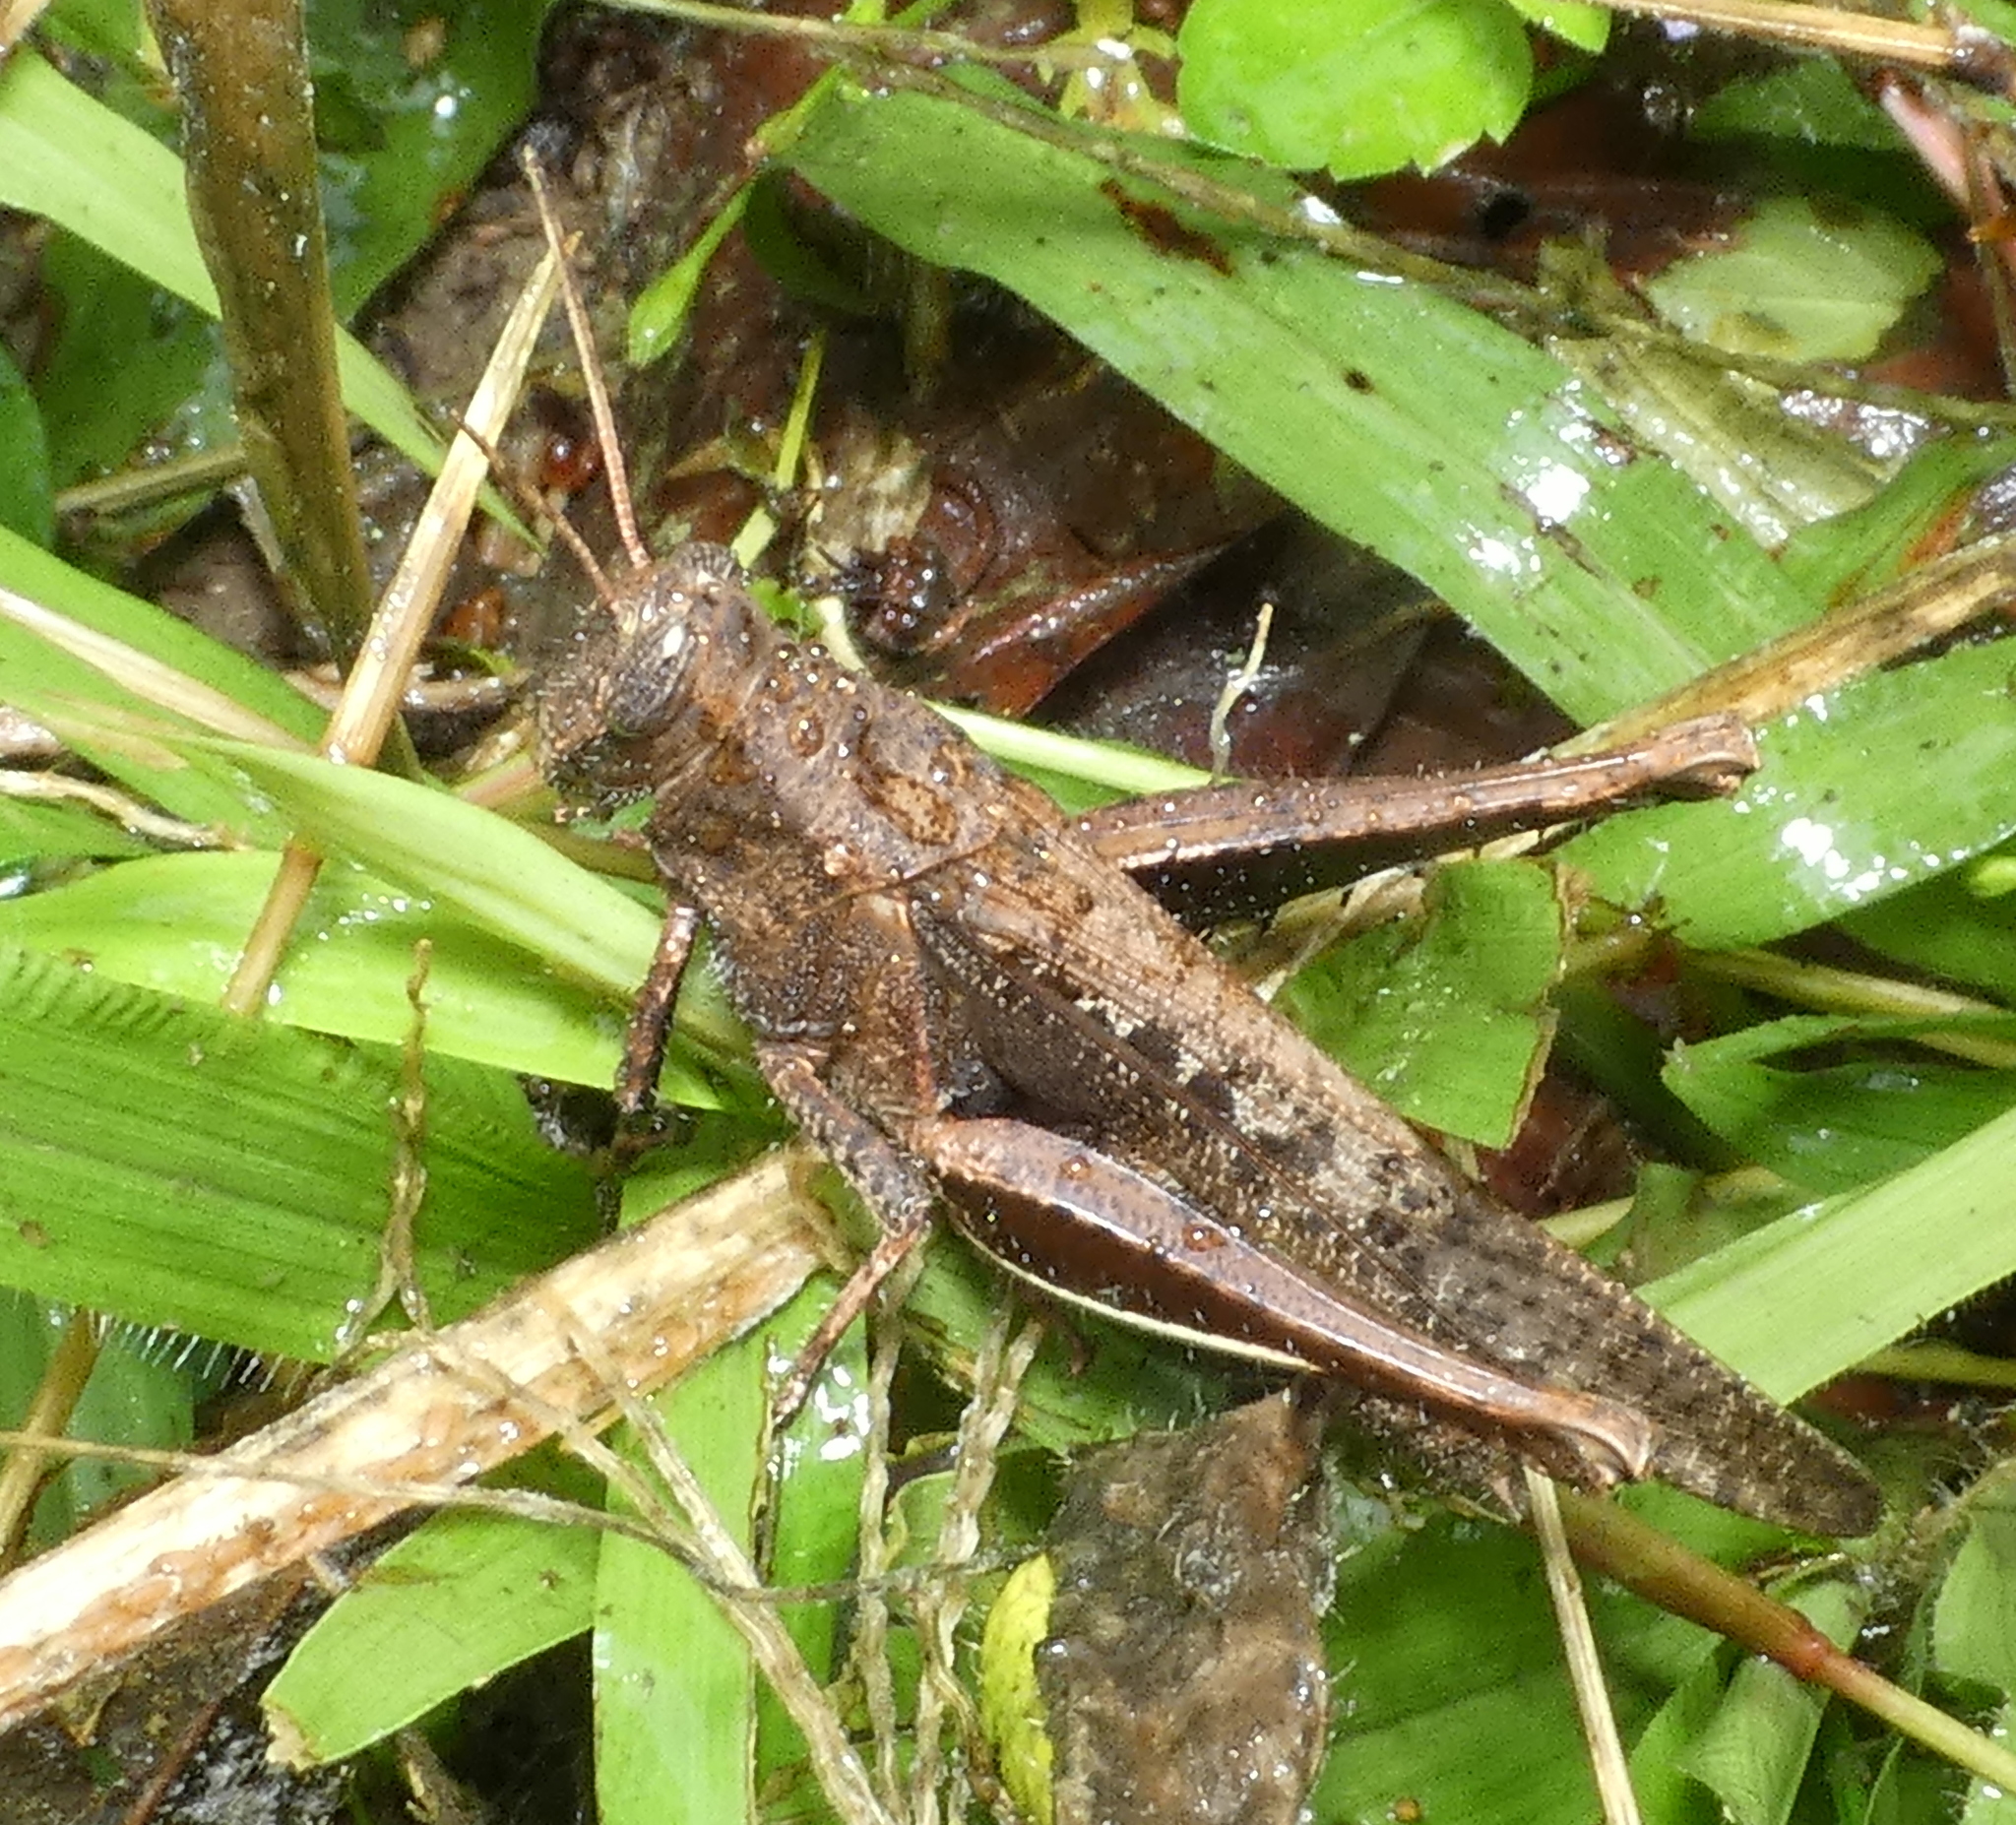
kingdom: Animalia
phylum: Arthropoda
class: Insecta
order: Orthoptera
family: Acrididae
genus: Abracris
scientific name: Abracris flavolineata
